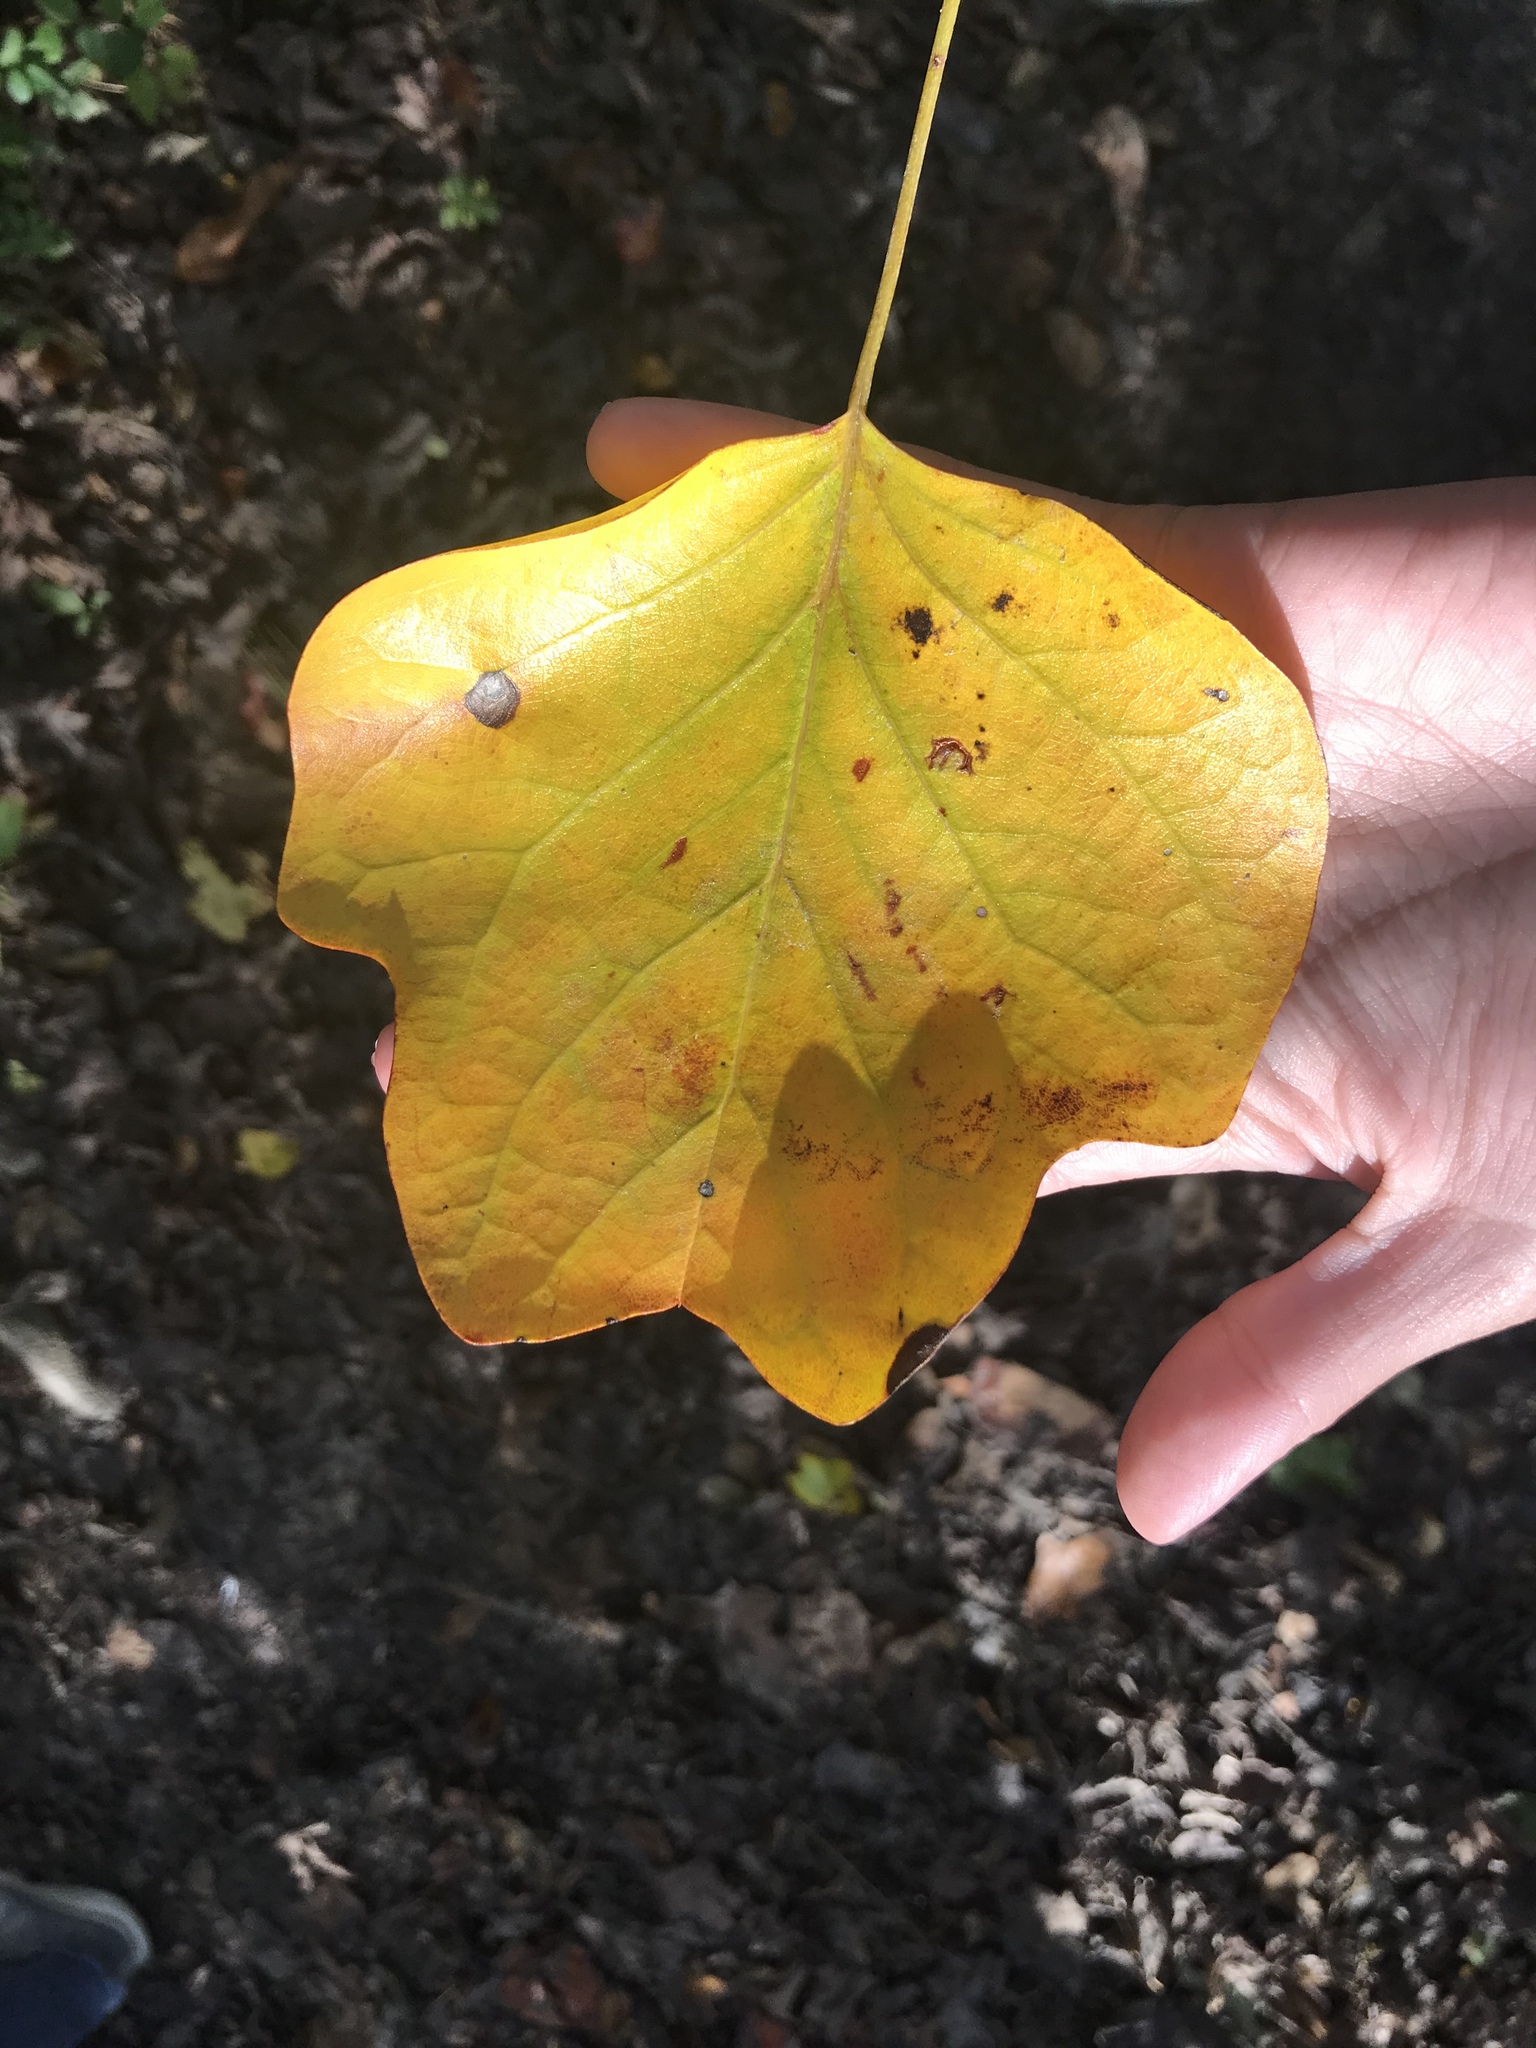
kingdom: Plantae
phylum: Tracheophyta
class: Magnoliopsida
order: Magnoliales
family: Magnoliaceae
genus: Liriodendron
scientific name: Liriodendron tulipifera
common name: Tulip tree
